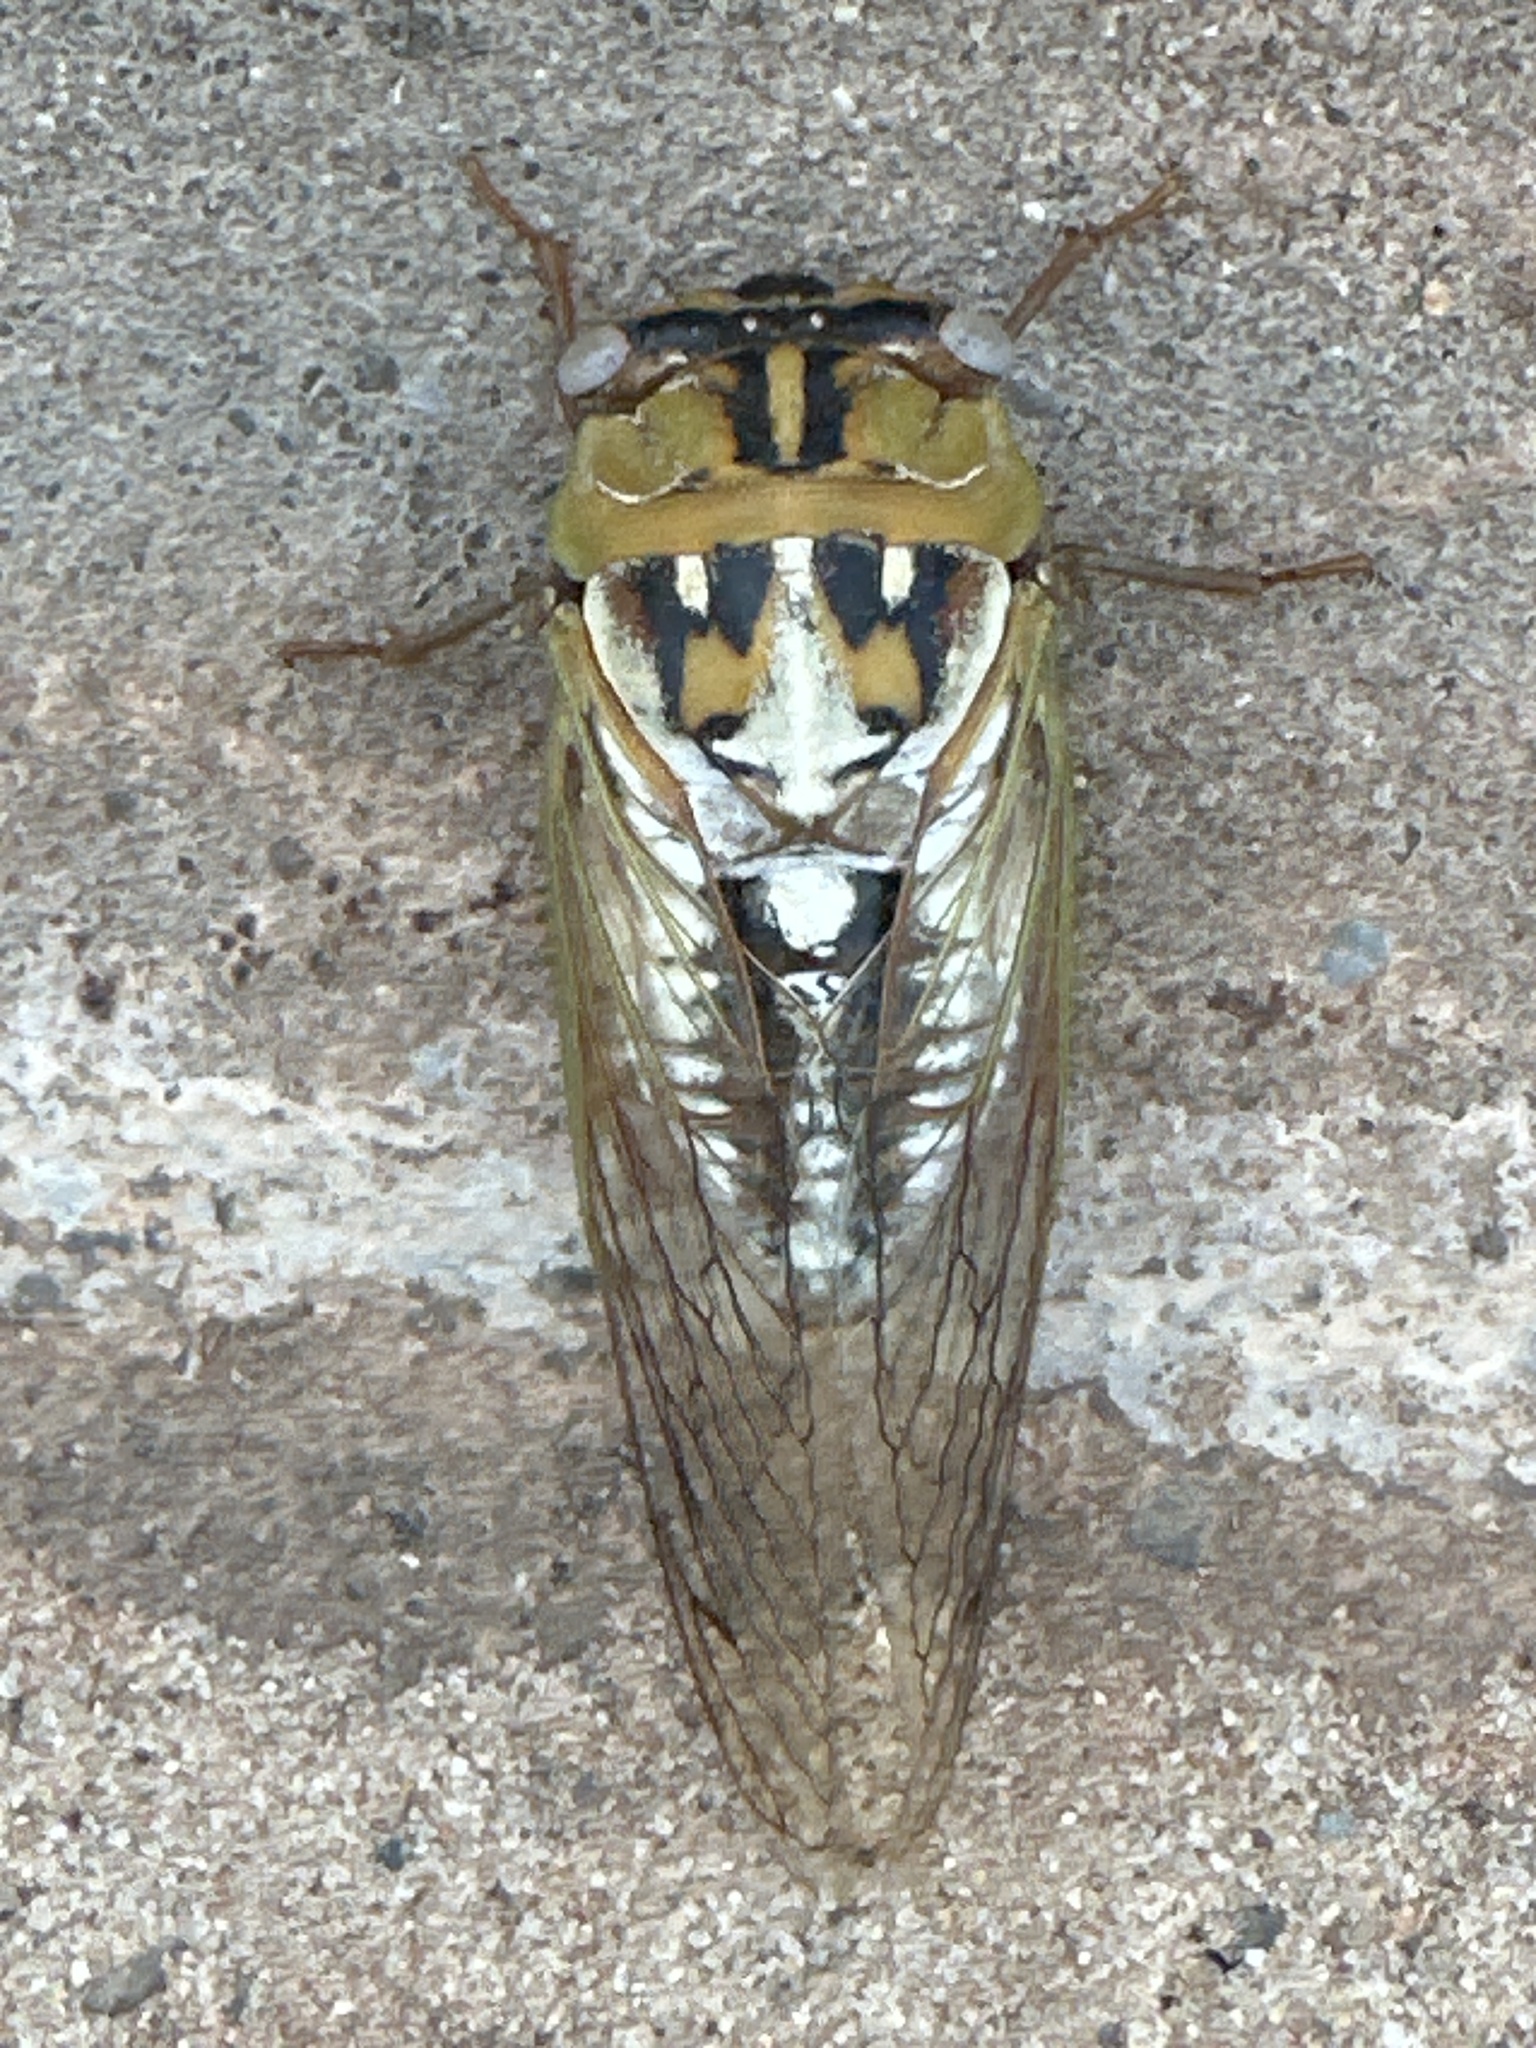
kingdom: Animalia
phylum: Arthropoda
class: Insecta
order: Hemiptera
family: Cicadidae
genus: Megatibicen
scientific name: Megatibicen dealbatus
